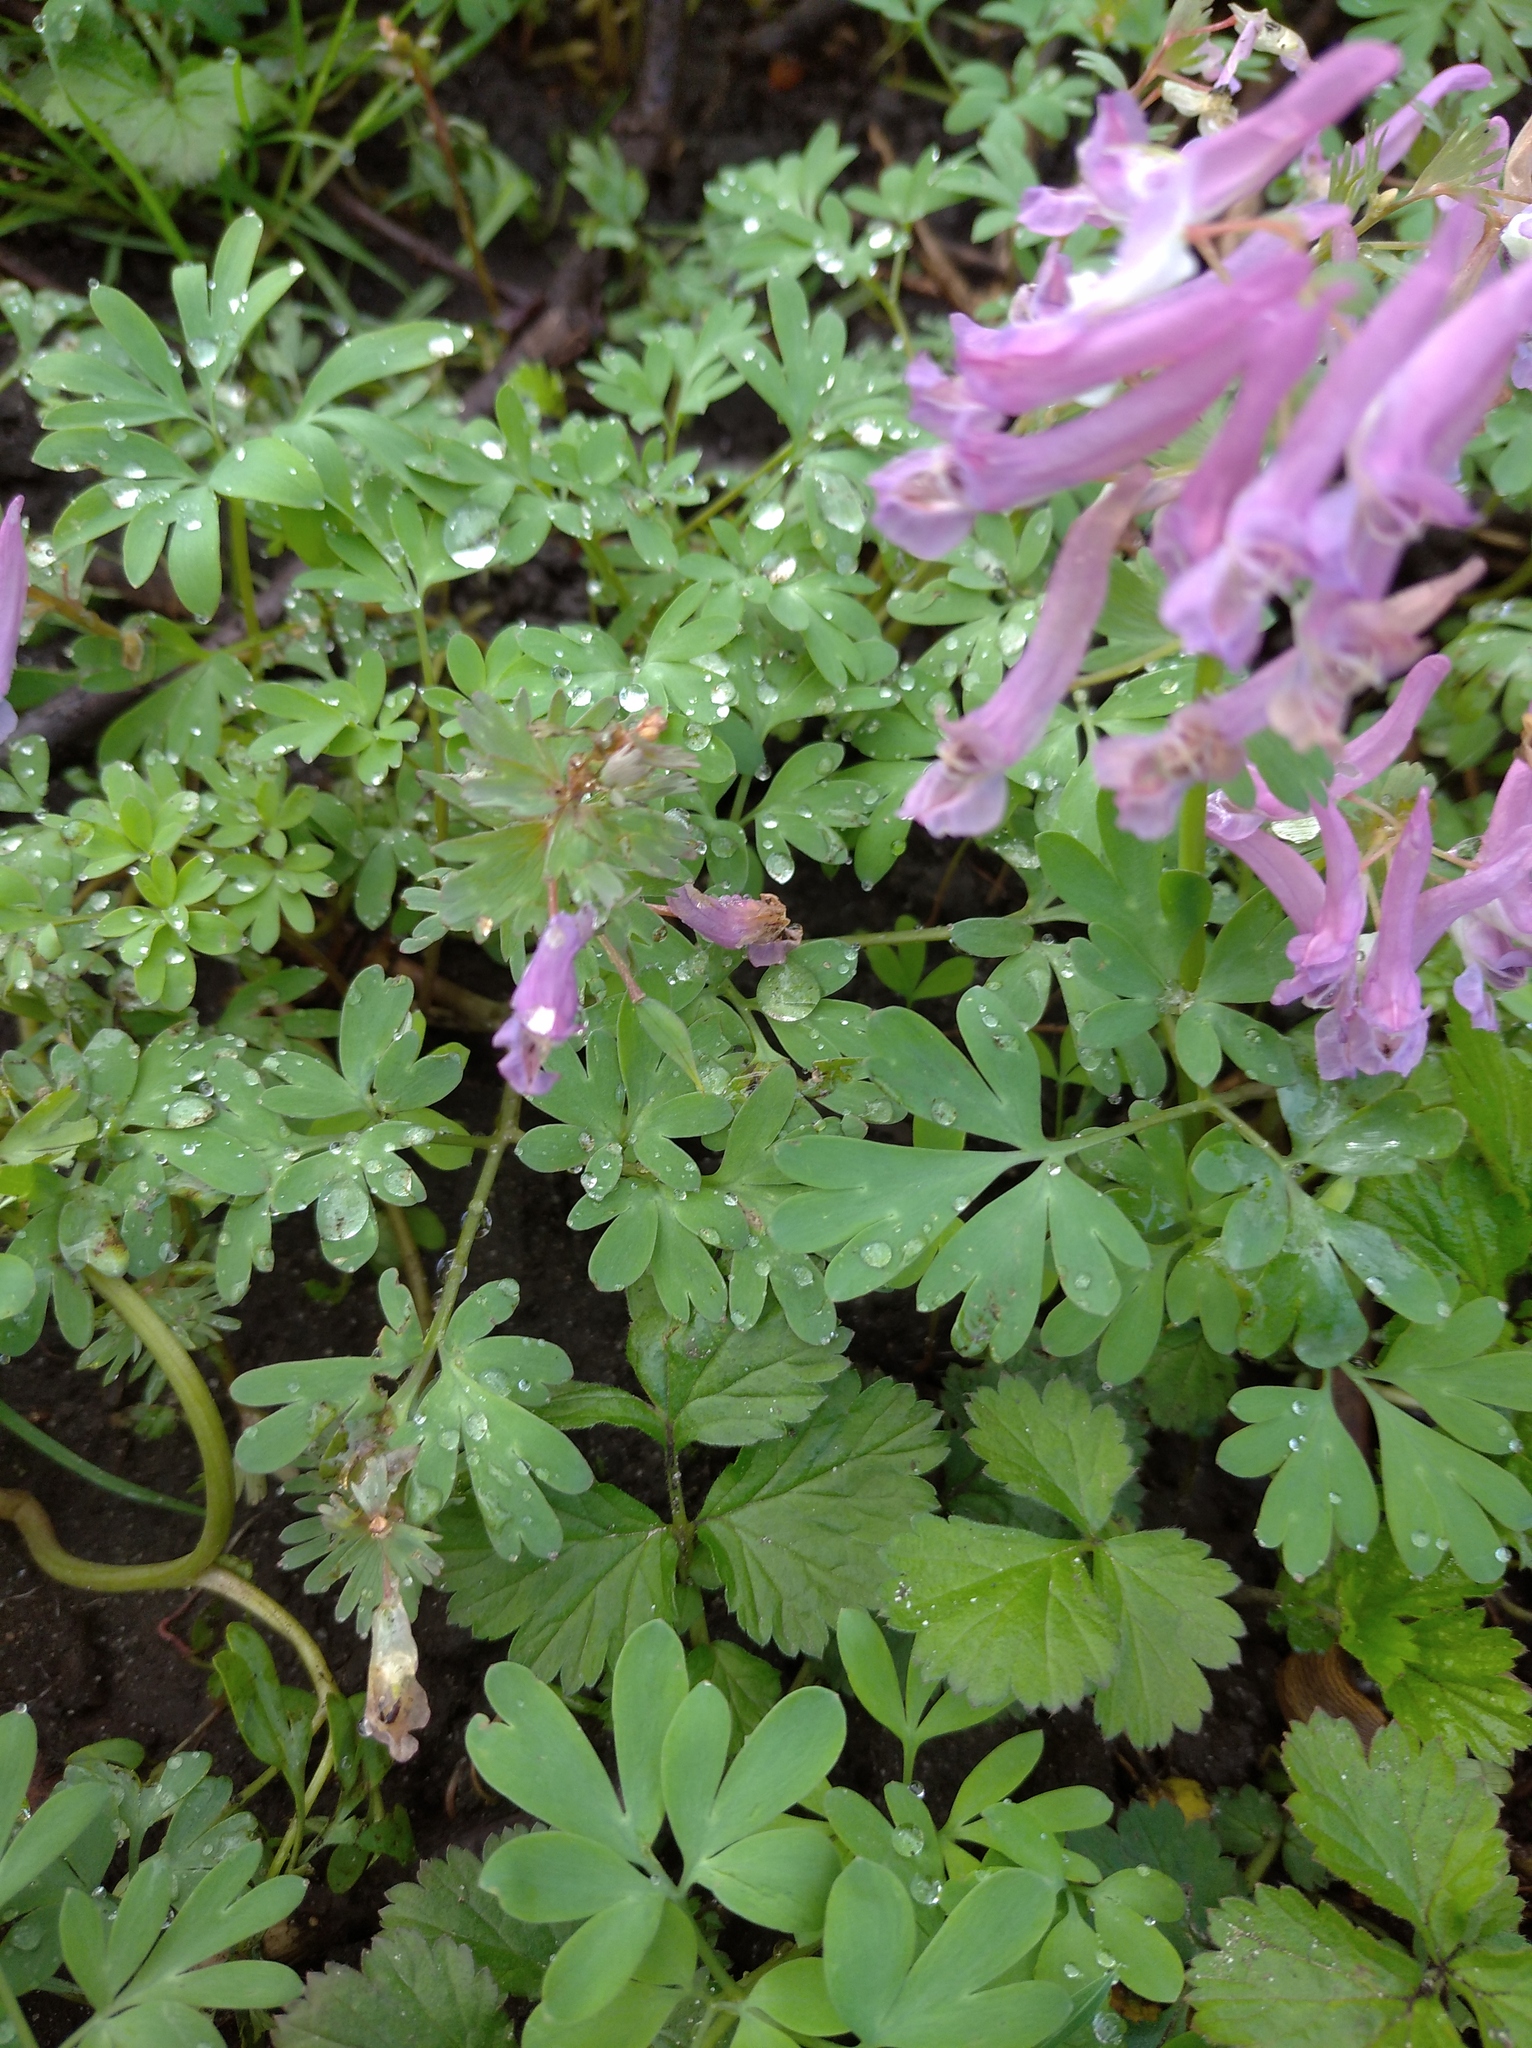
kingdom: Plantae
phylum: Tracheophyta
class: Magnoliopsida
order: Ranunculales
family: Papaveraceae
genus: Corydalis
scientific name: Corydalis solida
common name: Bird-in-a-bush
